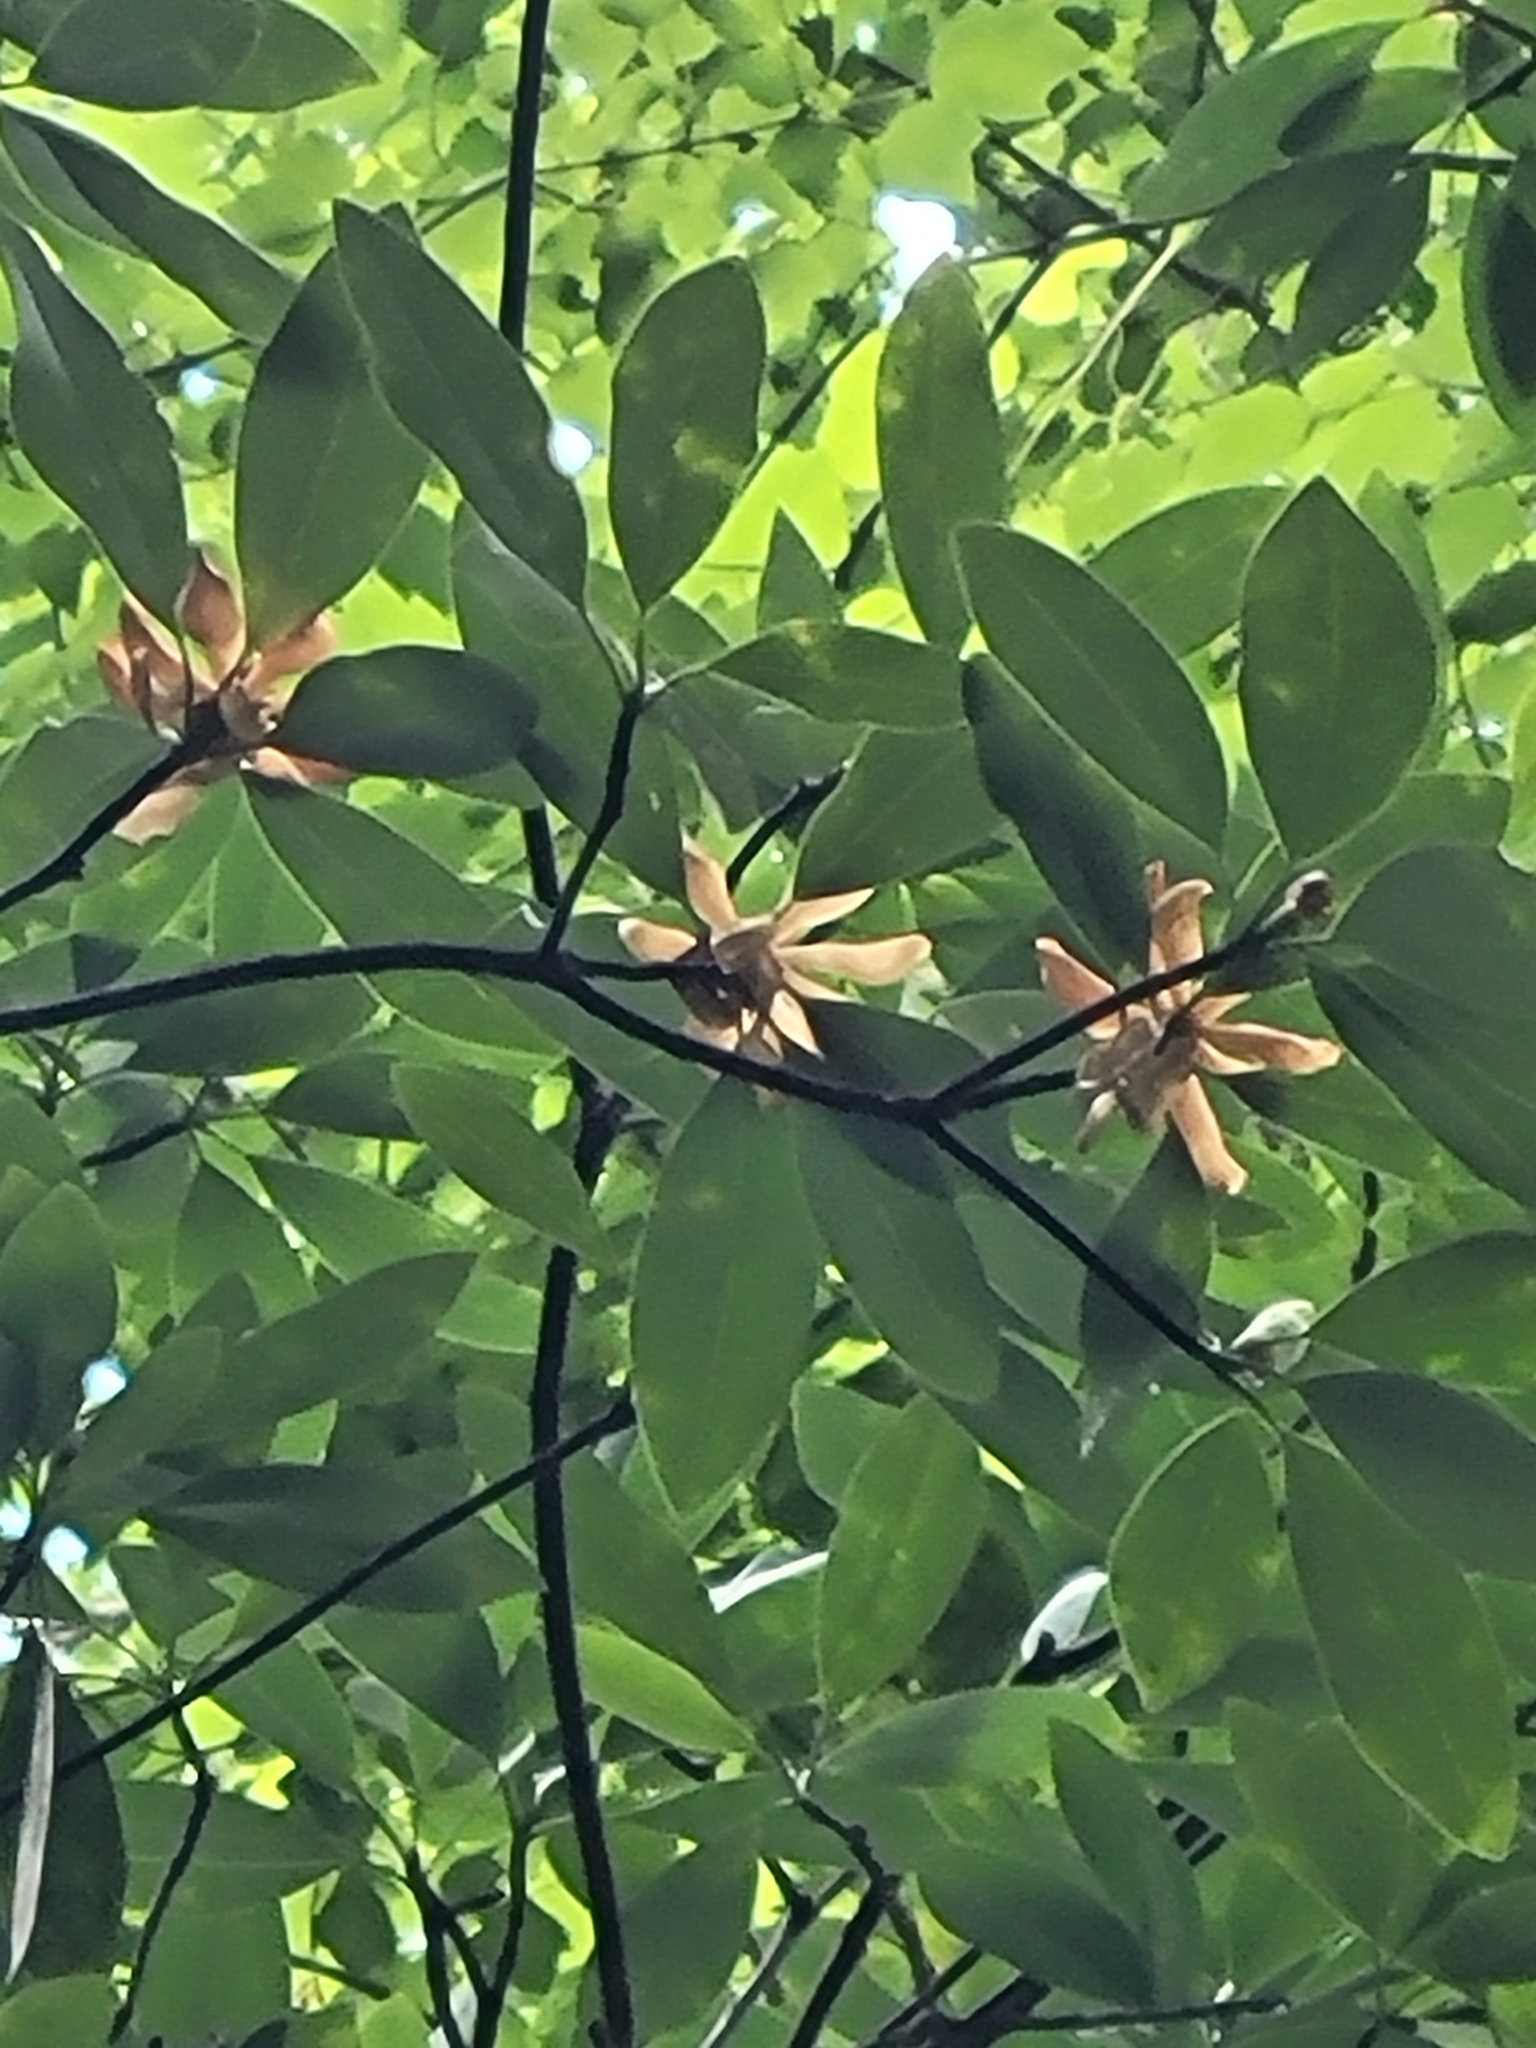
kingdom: Plantae
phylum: Tracheophyta
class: Magnoliopsida
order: Magnoliales
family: Magnoliaceae
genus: Magnolia
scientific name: Magnolia virginiana
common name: Swamp bay
